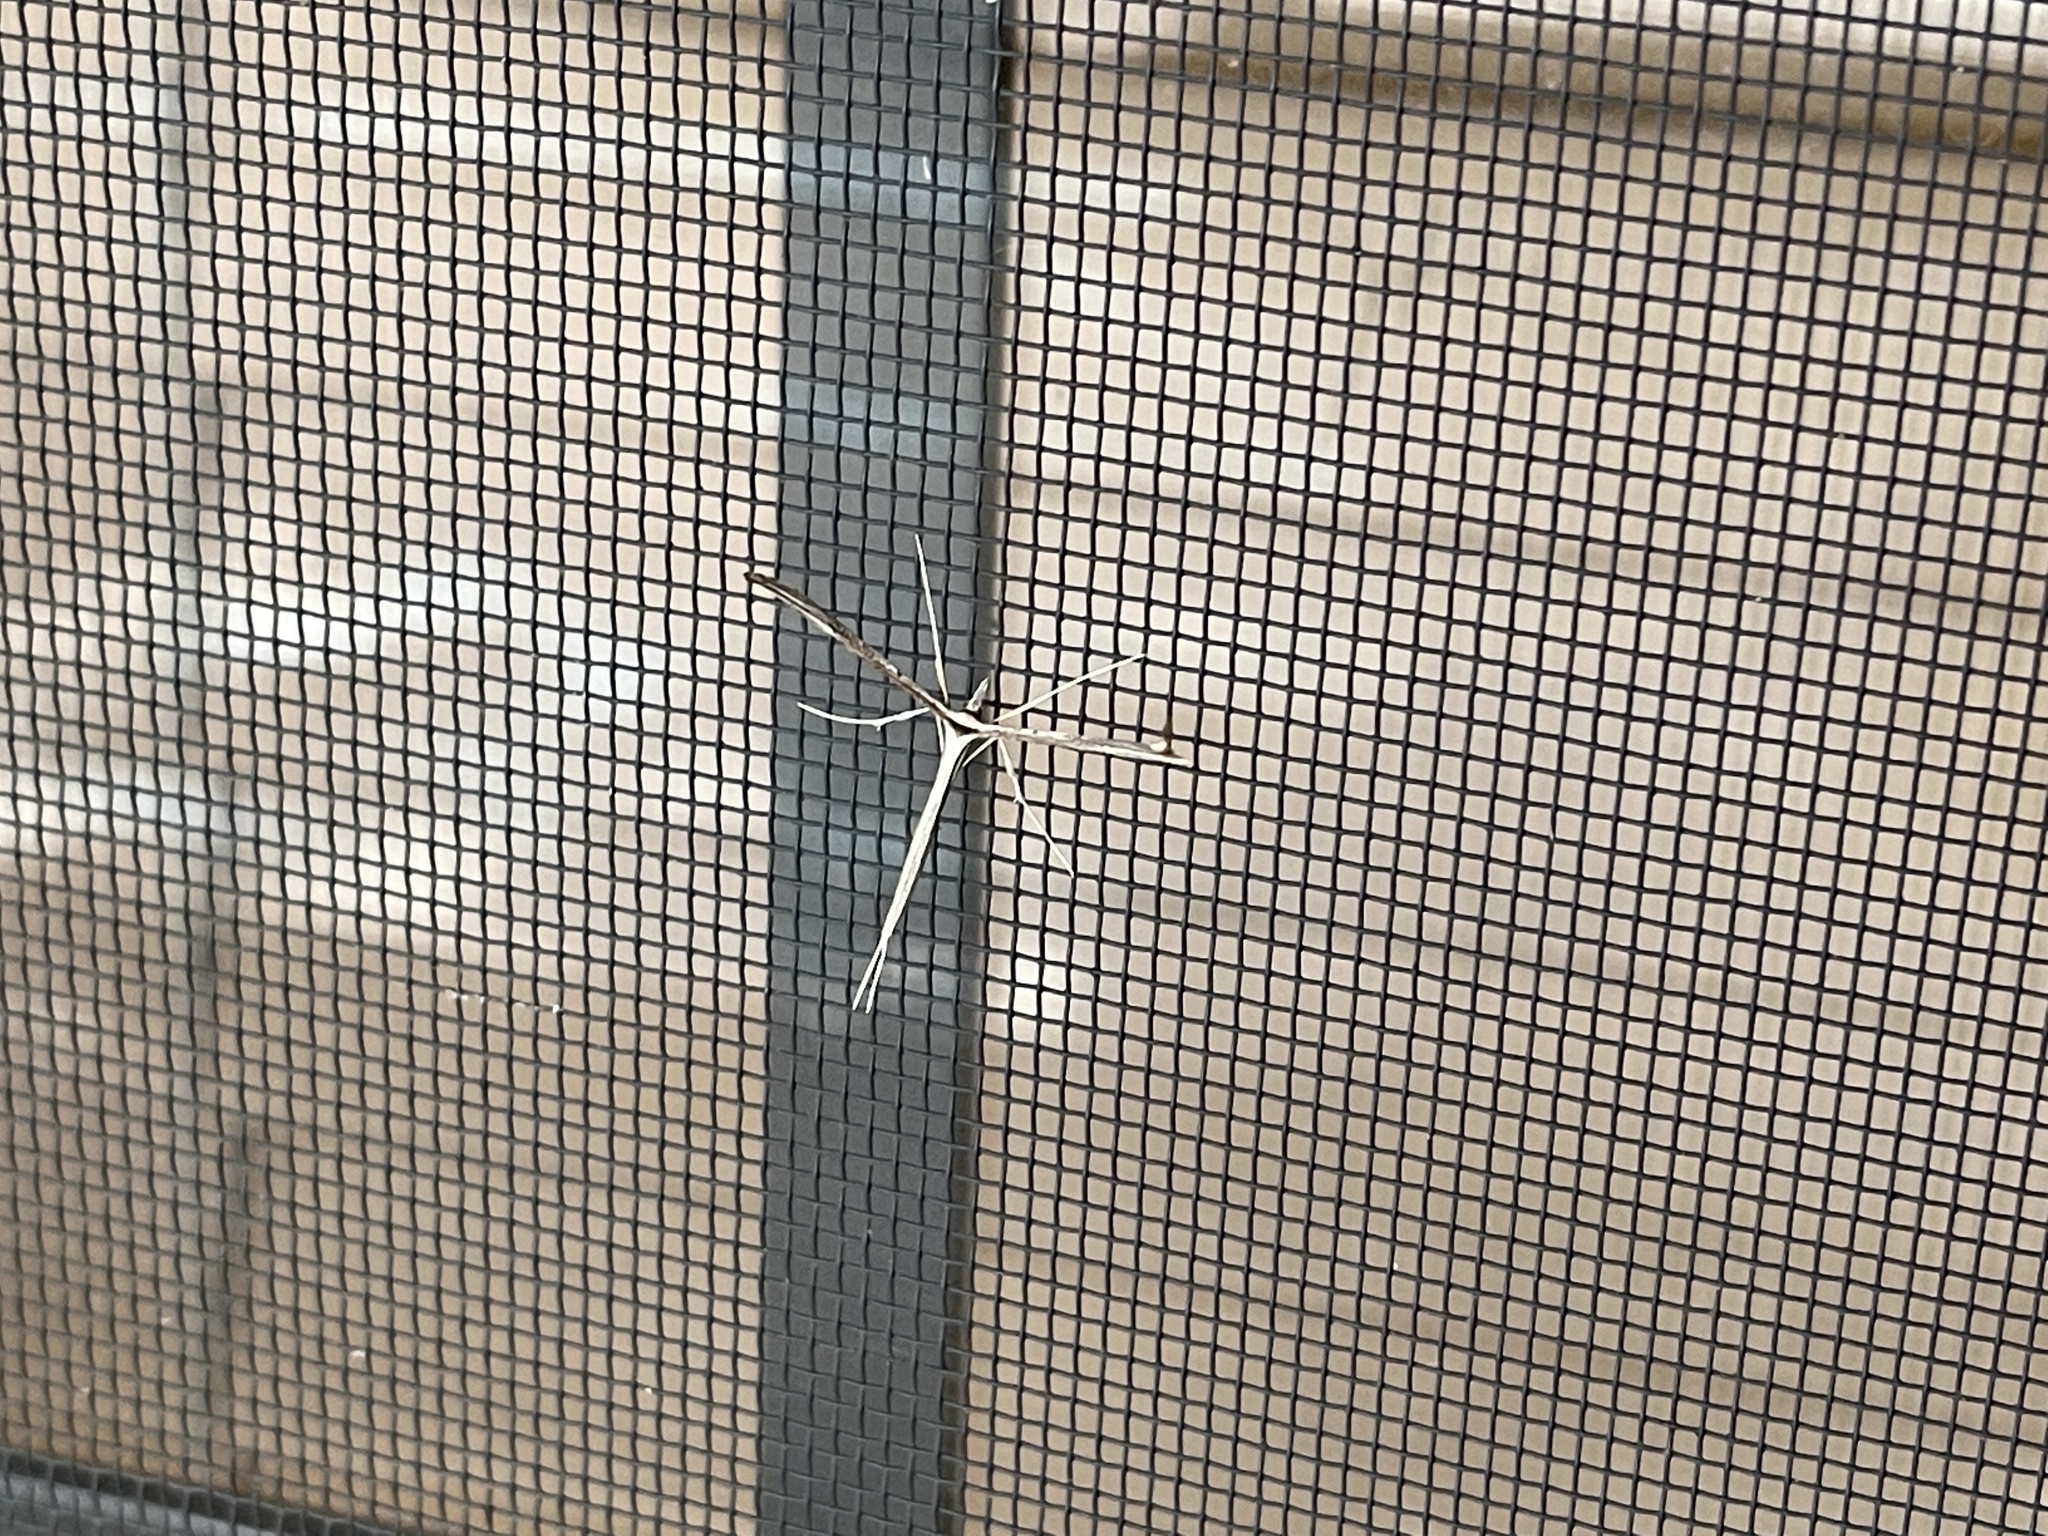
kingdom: Animalia
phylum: Arthropoda
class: Insecta
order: Lepidoptera
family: Pterophoridae
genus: Hellinsia
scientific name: Hellinsia longifrons
